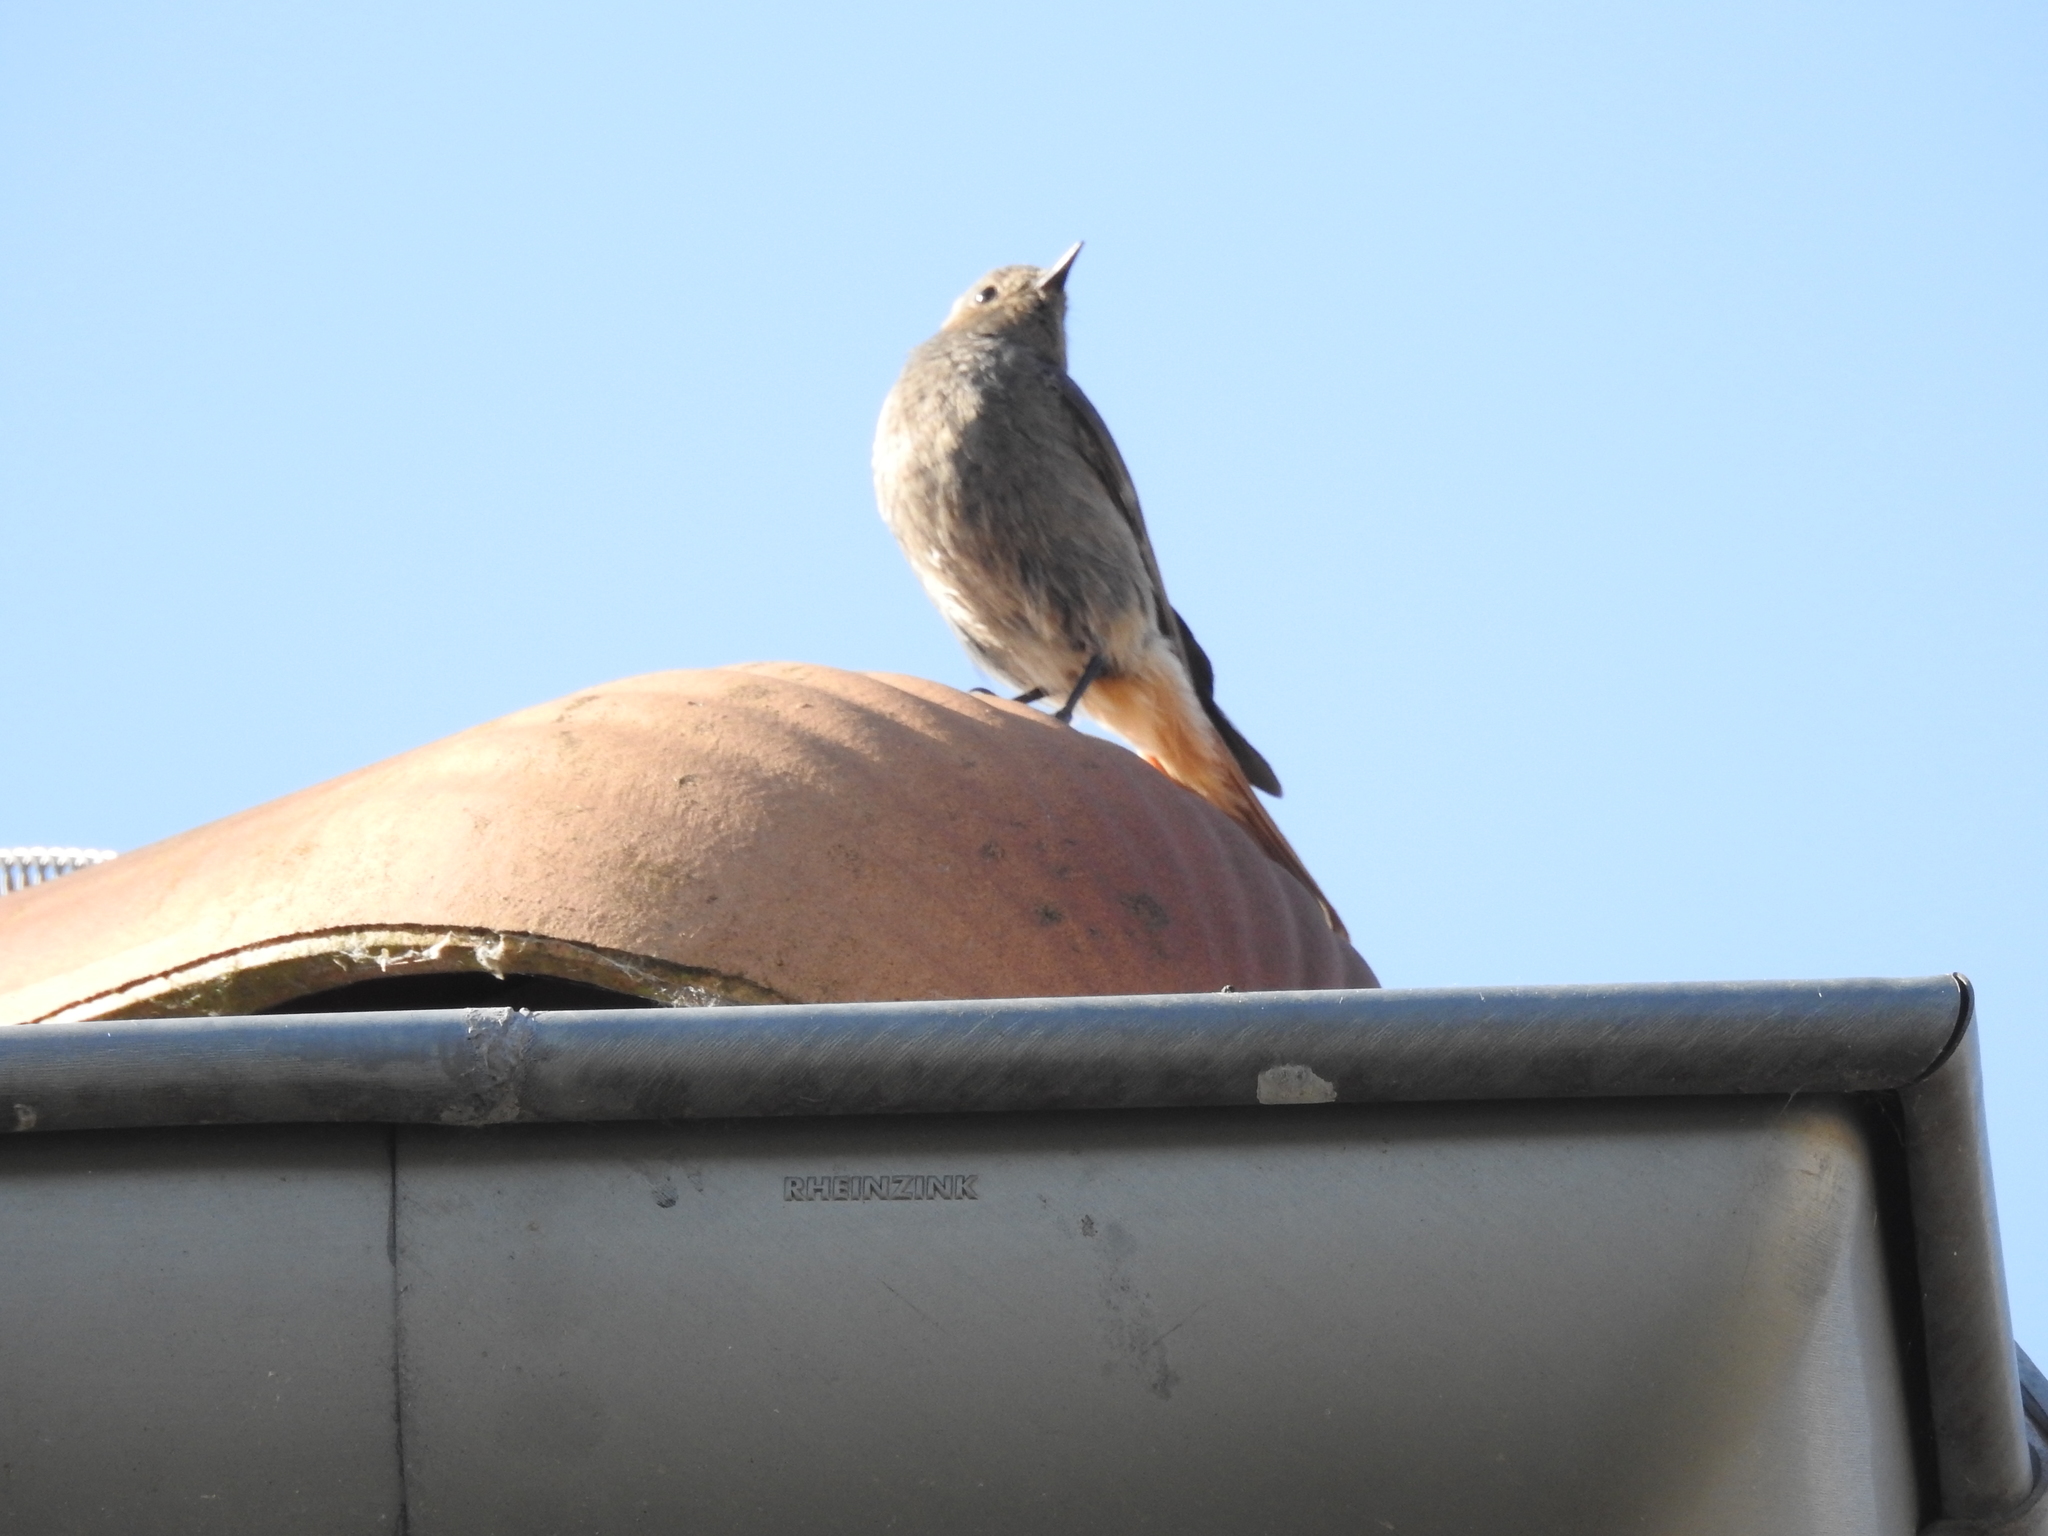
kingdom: Animalia
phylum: Chordata
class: Aves
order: Passeriformes
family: Muscicapidae
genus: Phoenicurus
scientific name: Phoenicurus ochruros
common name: Black redstart
